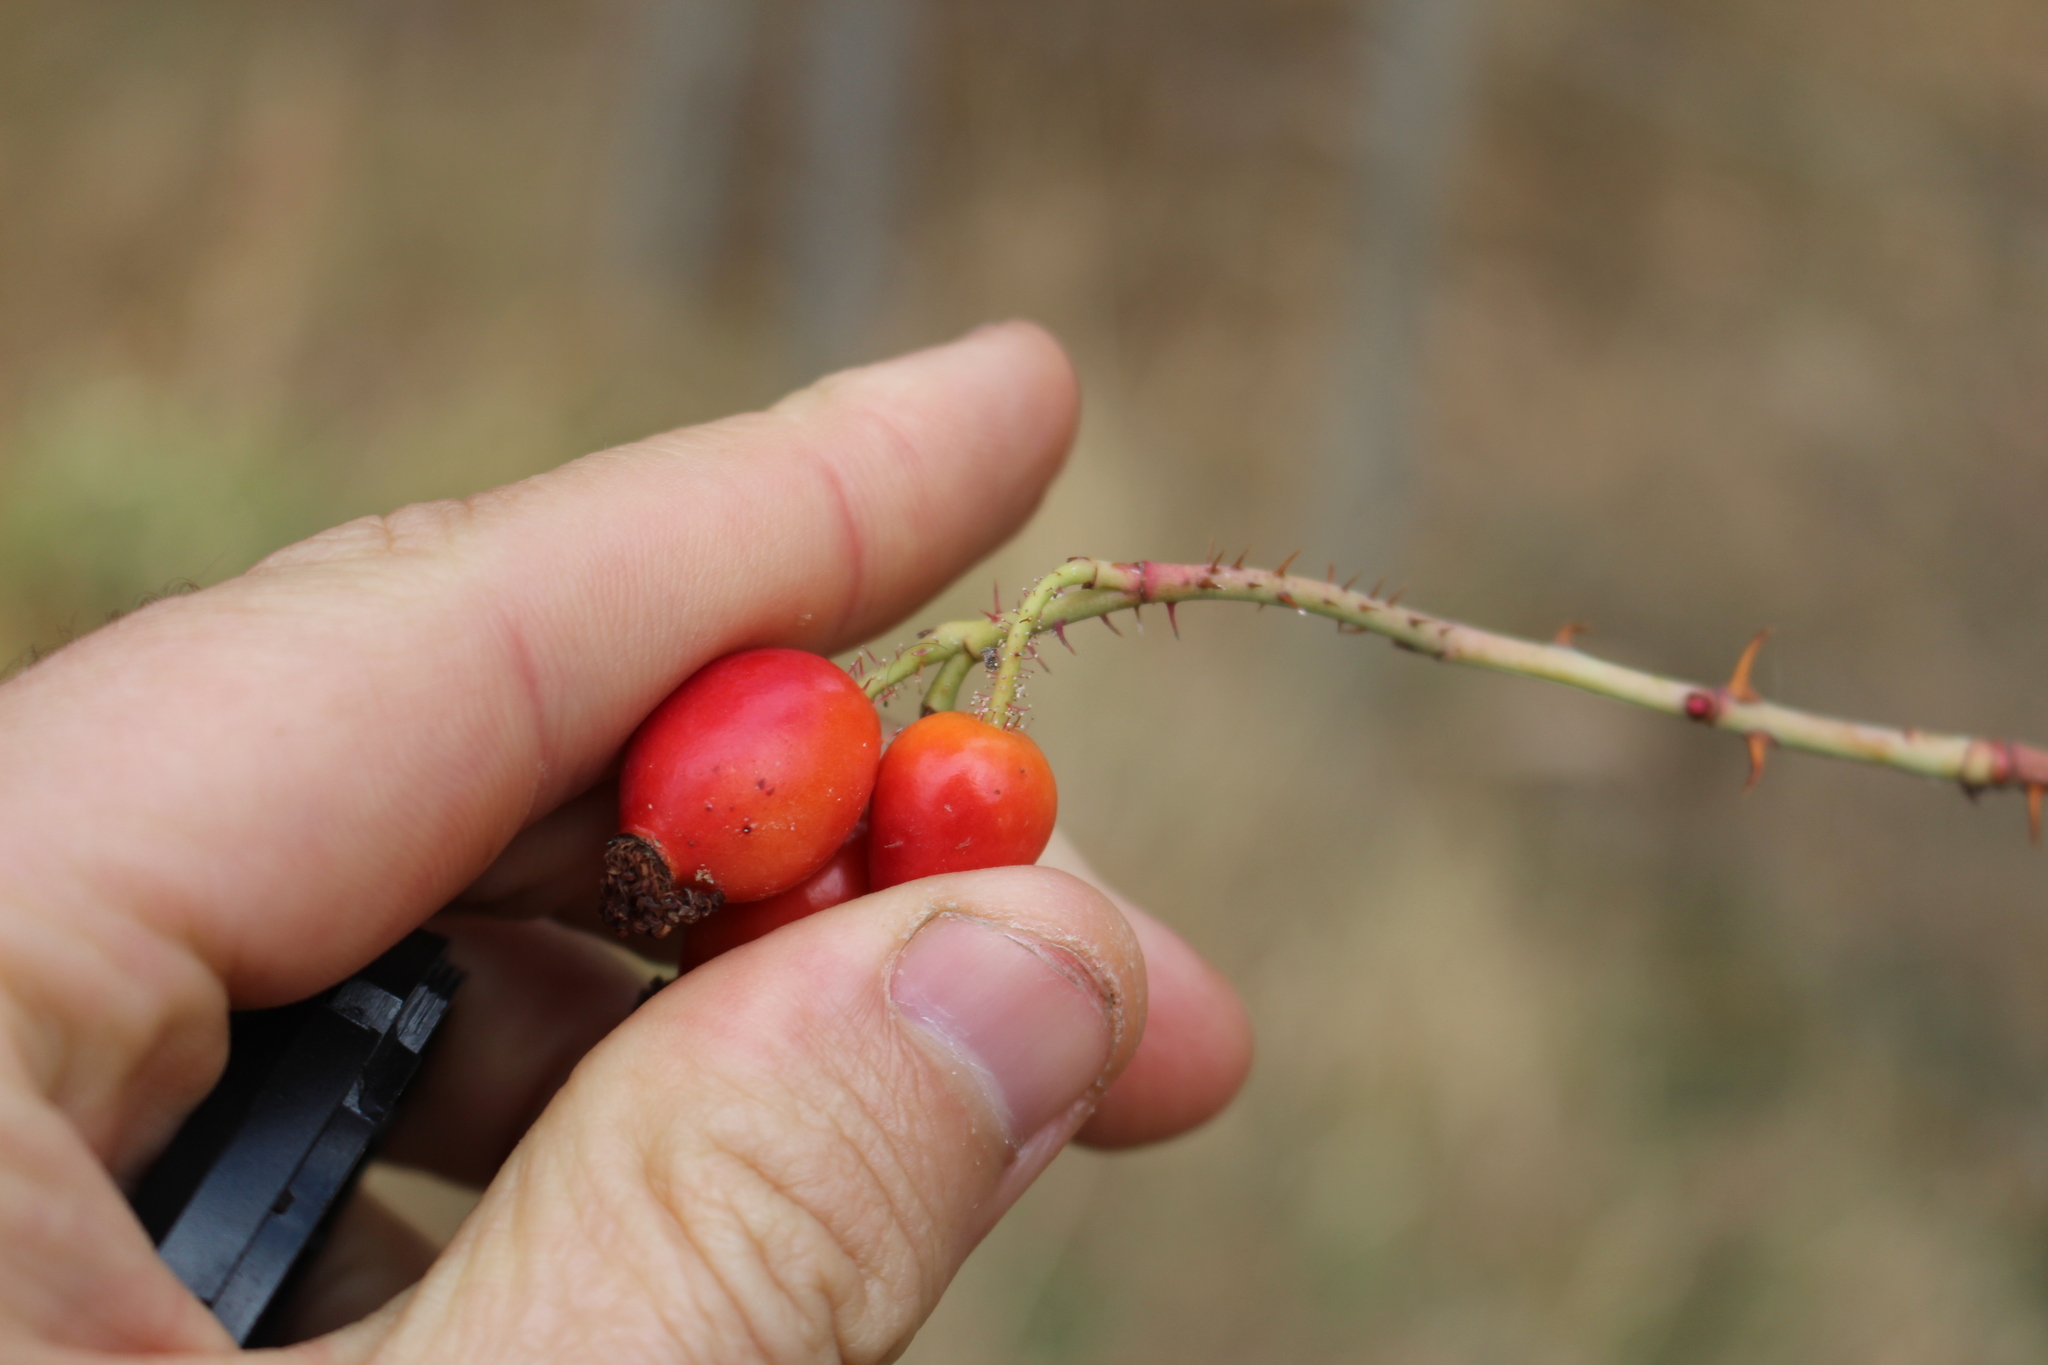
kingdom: Plantae
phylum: Tracheophyta
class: Magnoliopsida
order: Rosales
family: Rosaceae
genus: Rosa
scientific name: Rosa rubiginosa
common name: Sweet-briar
